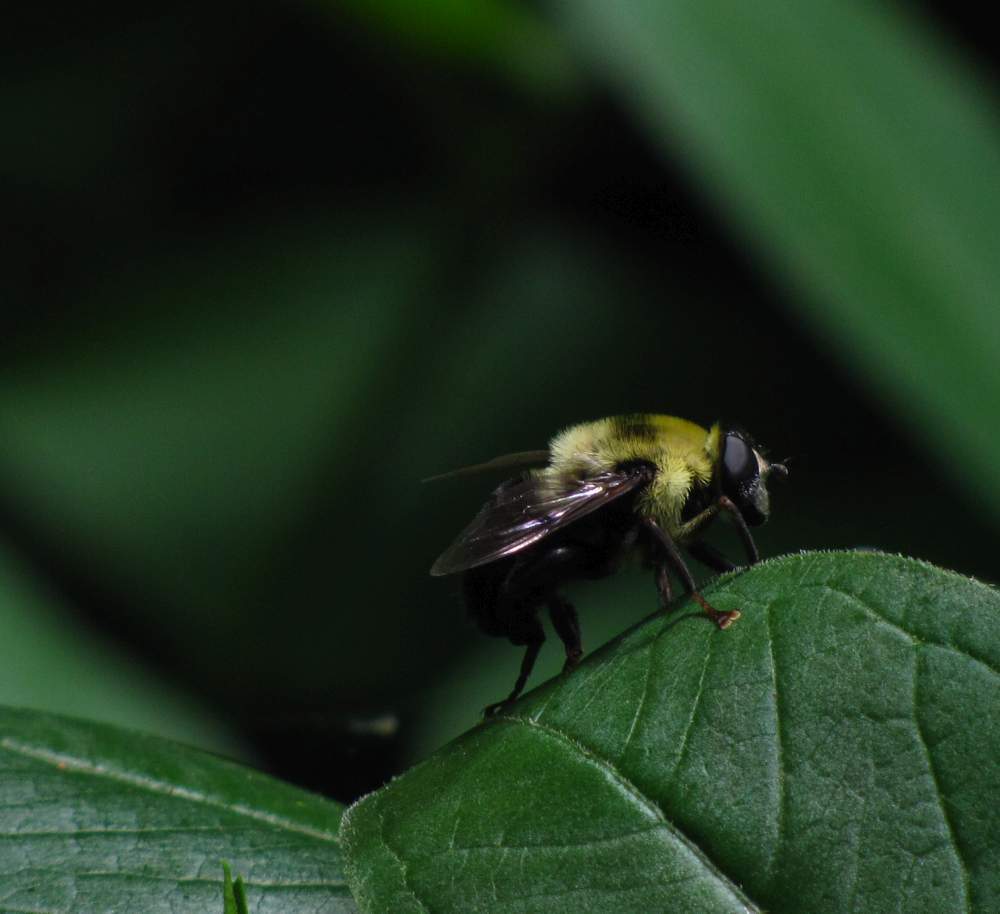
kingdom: Animalia
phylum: Arthropoda
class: Insecta
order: Diptera
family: Syrphidae
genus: Imatisma
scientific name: Imatisma posticata
